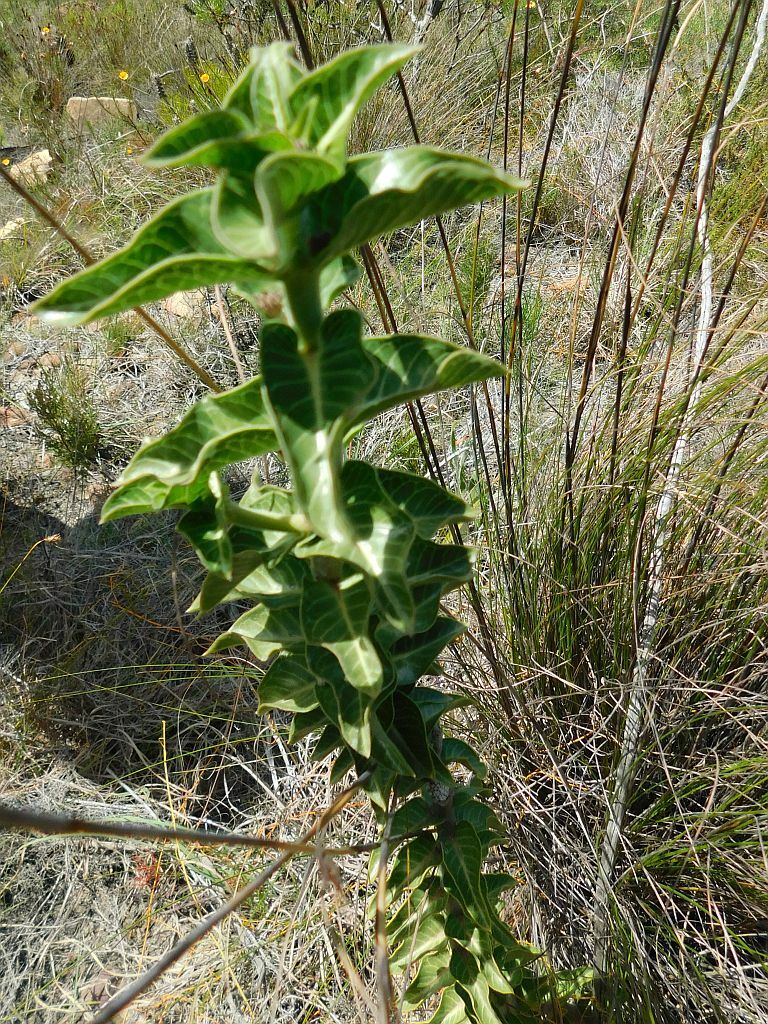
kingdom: Plantae
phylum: Tracheophyta
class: Magnoliopsida
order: Gentianales
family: Apocynaceae
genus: Gomphocarpus
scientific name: Gomphocarpus cancellatus
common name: Wild cotton
